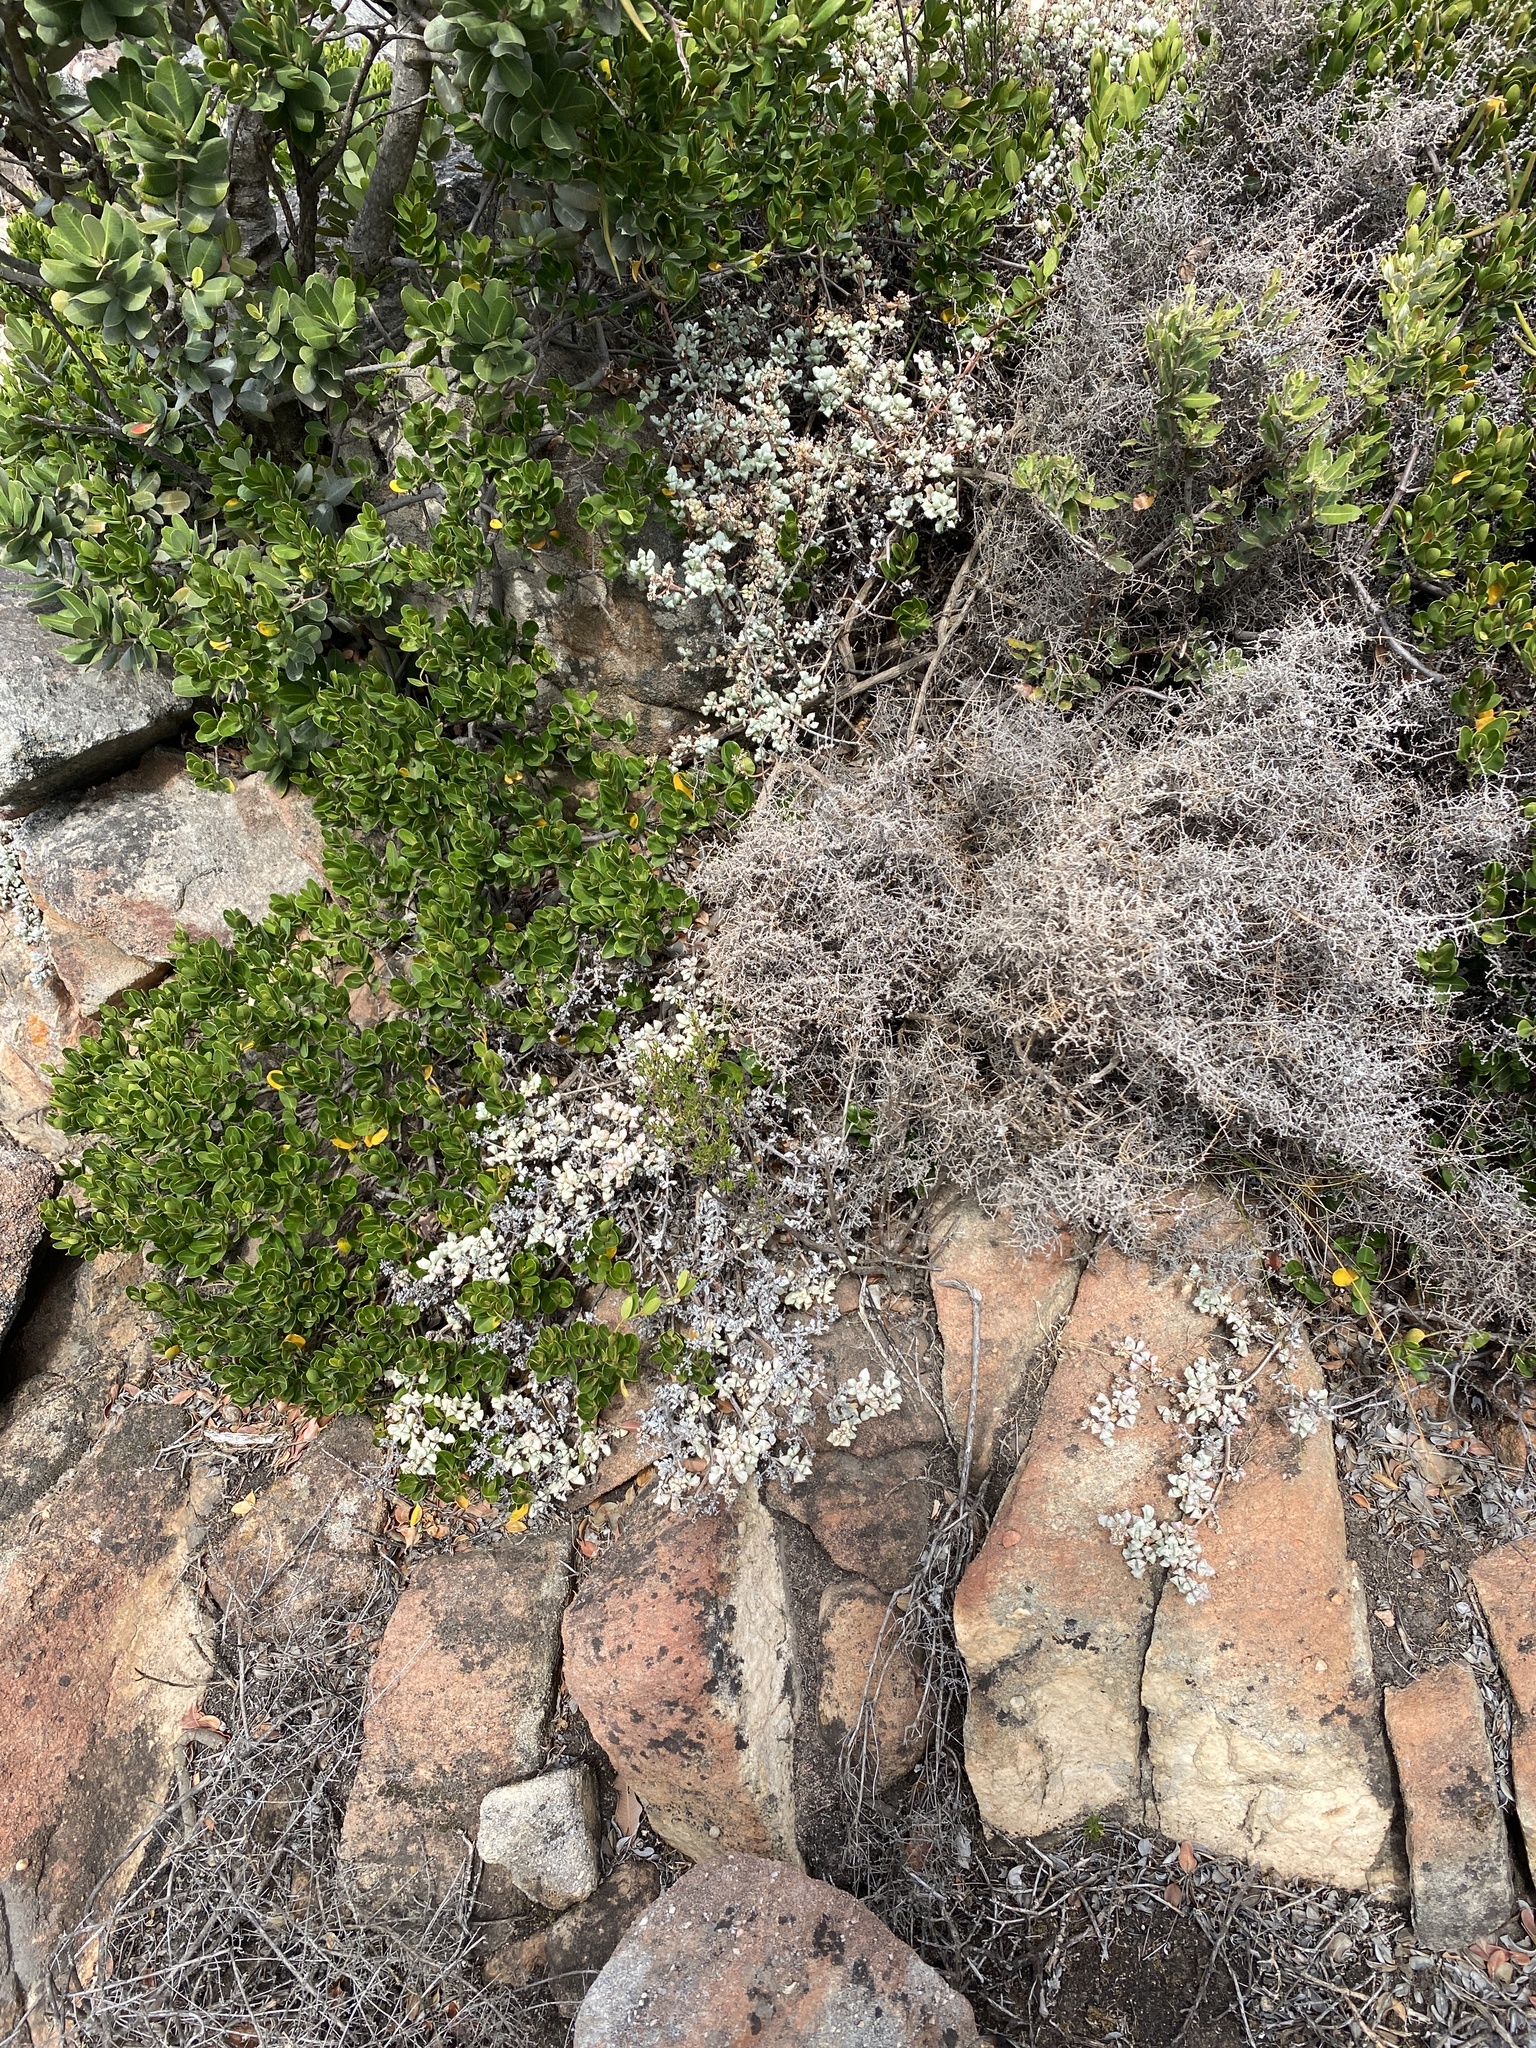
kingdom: Plantae
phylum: Tracheophyta
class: Magnoliopsida
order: Caryophyllales
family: Aizoaceae
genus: Oscularia
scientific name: Oscularia deltoides
